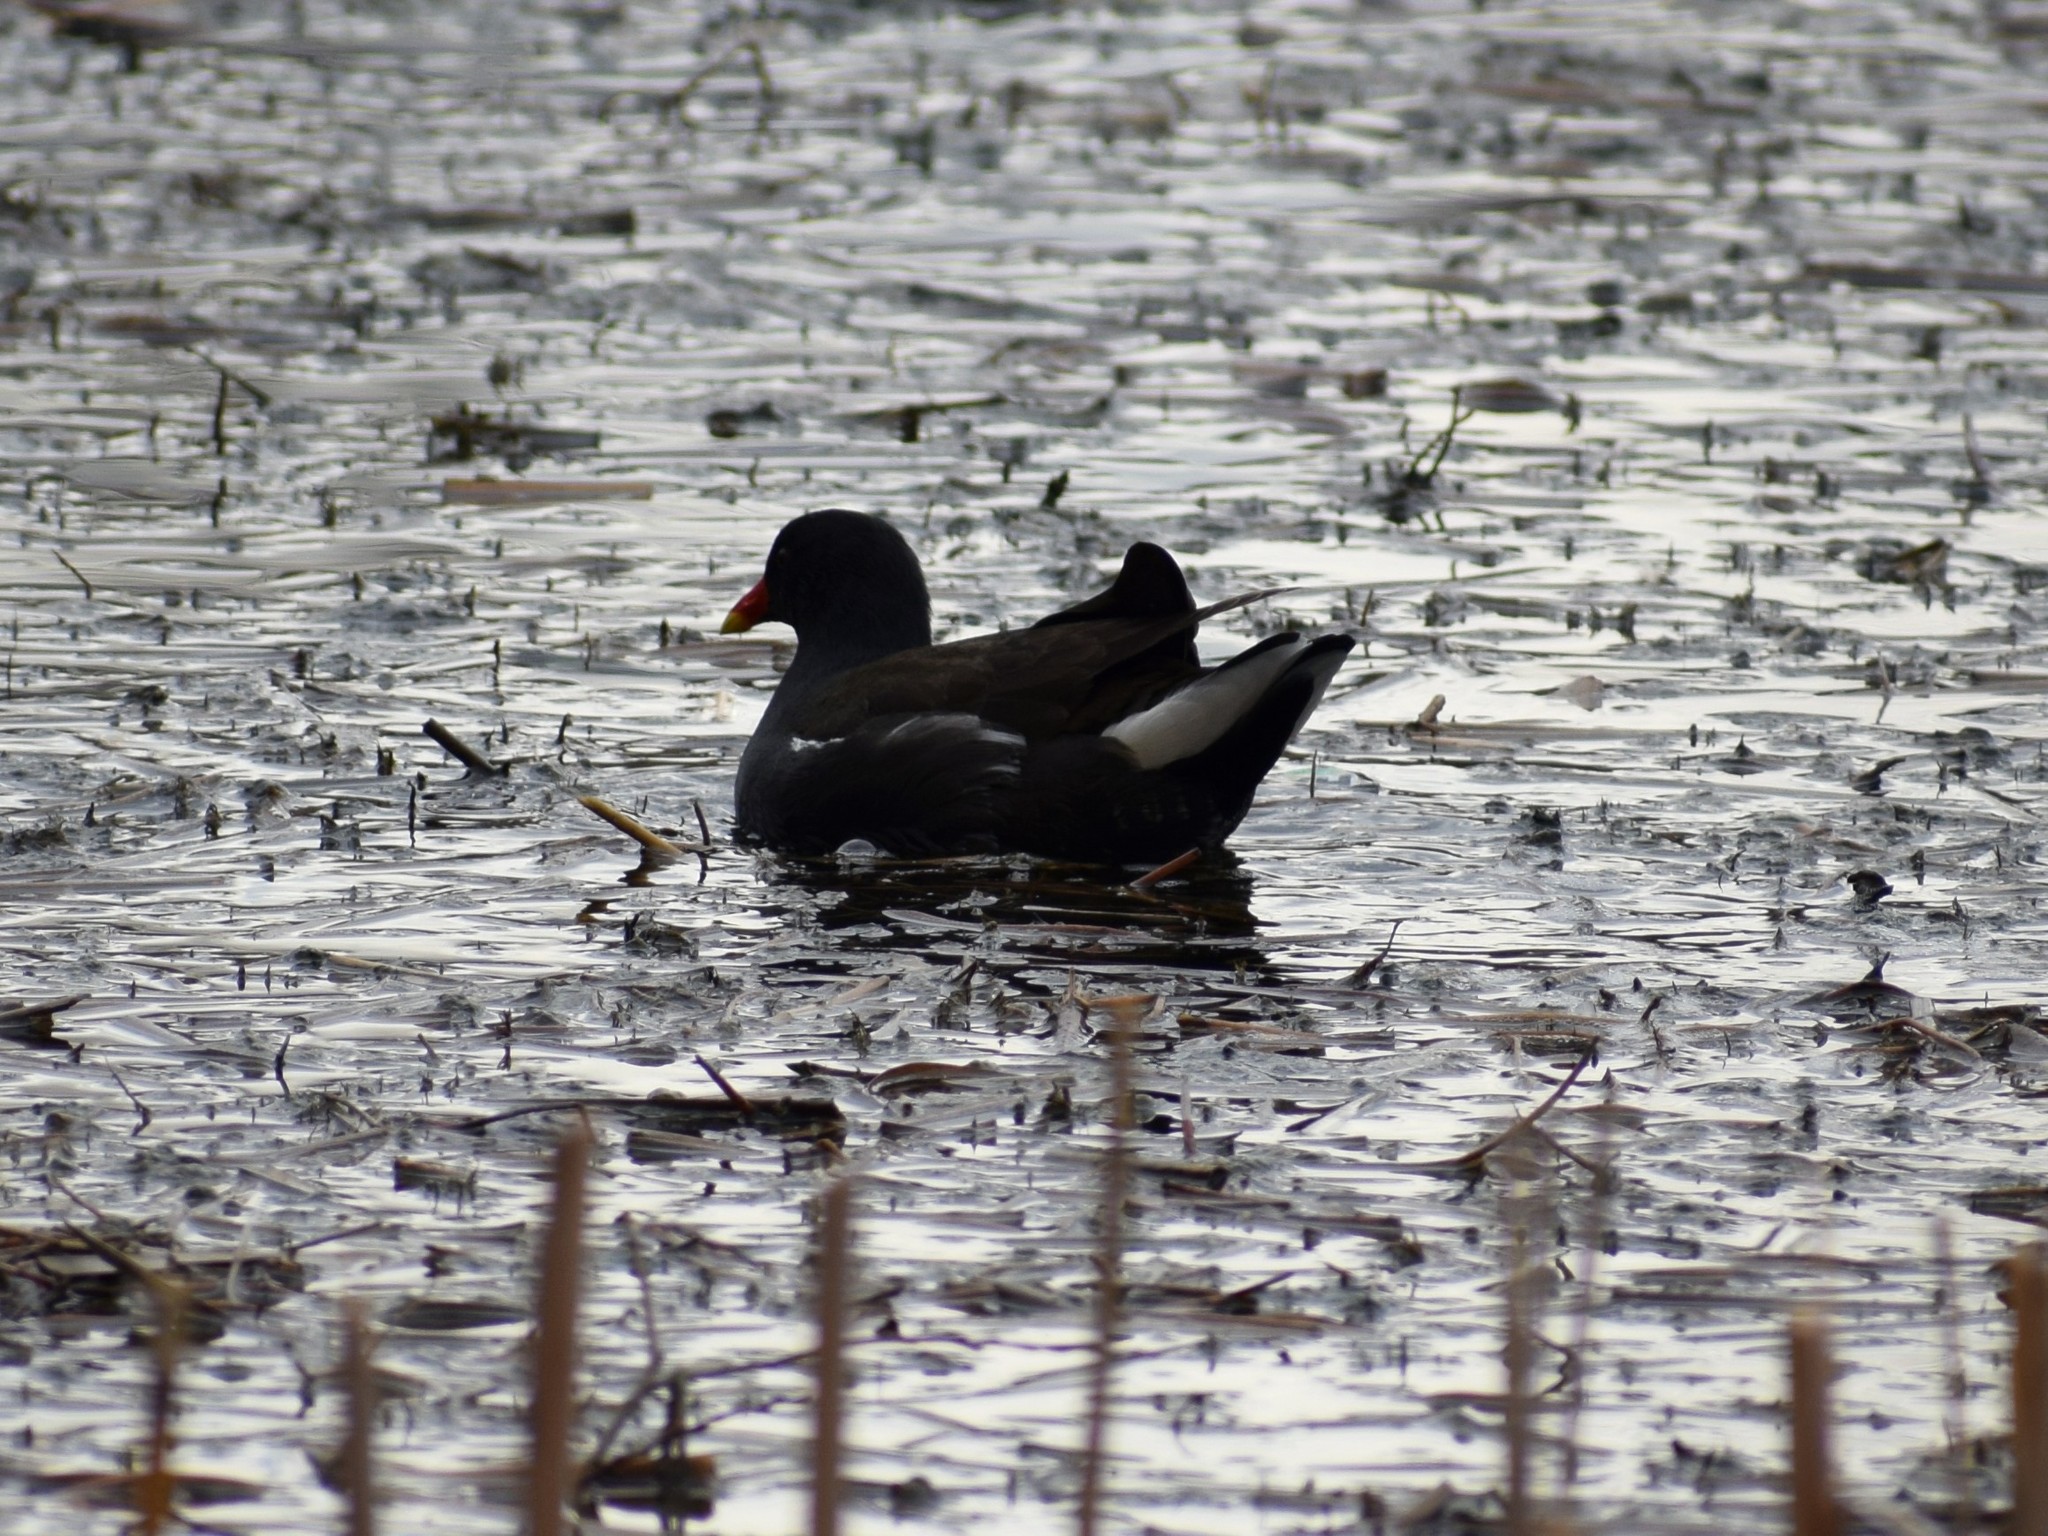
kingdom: Animalia
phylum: Chordata
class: Aves
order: Gruiformes
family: Rallidae
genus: Gallinula
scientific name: Gallinula chloropus
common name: Common moorhen
